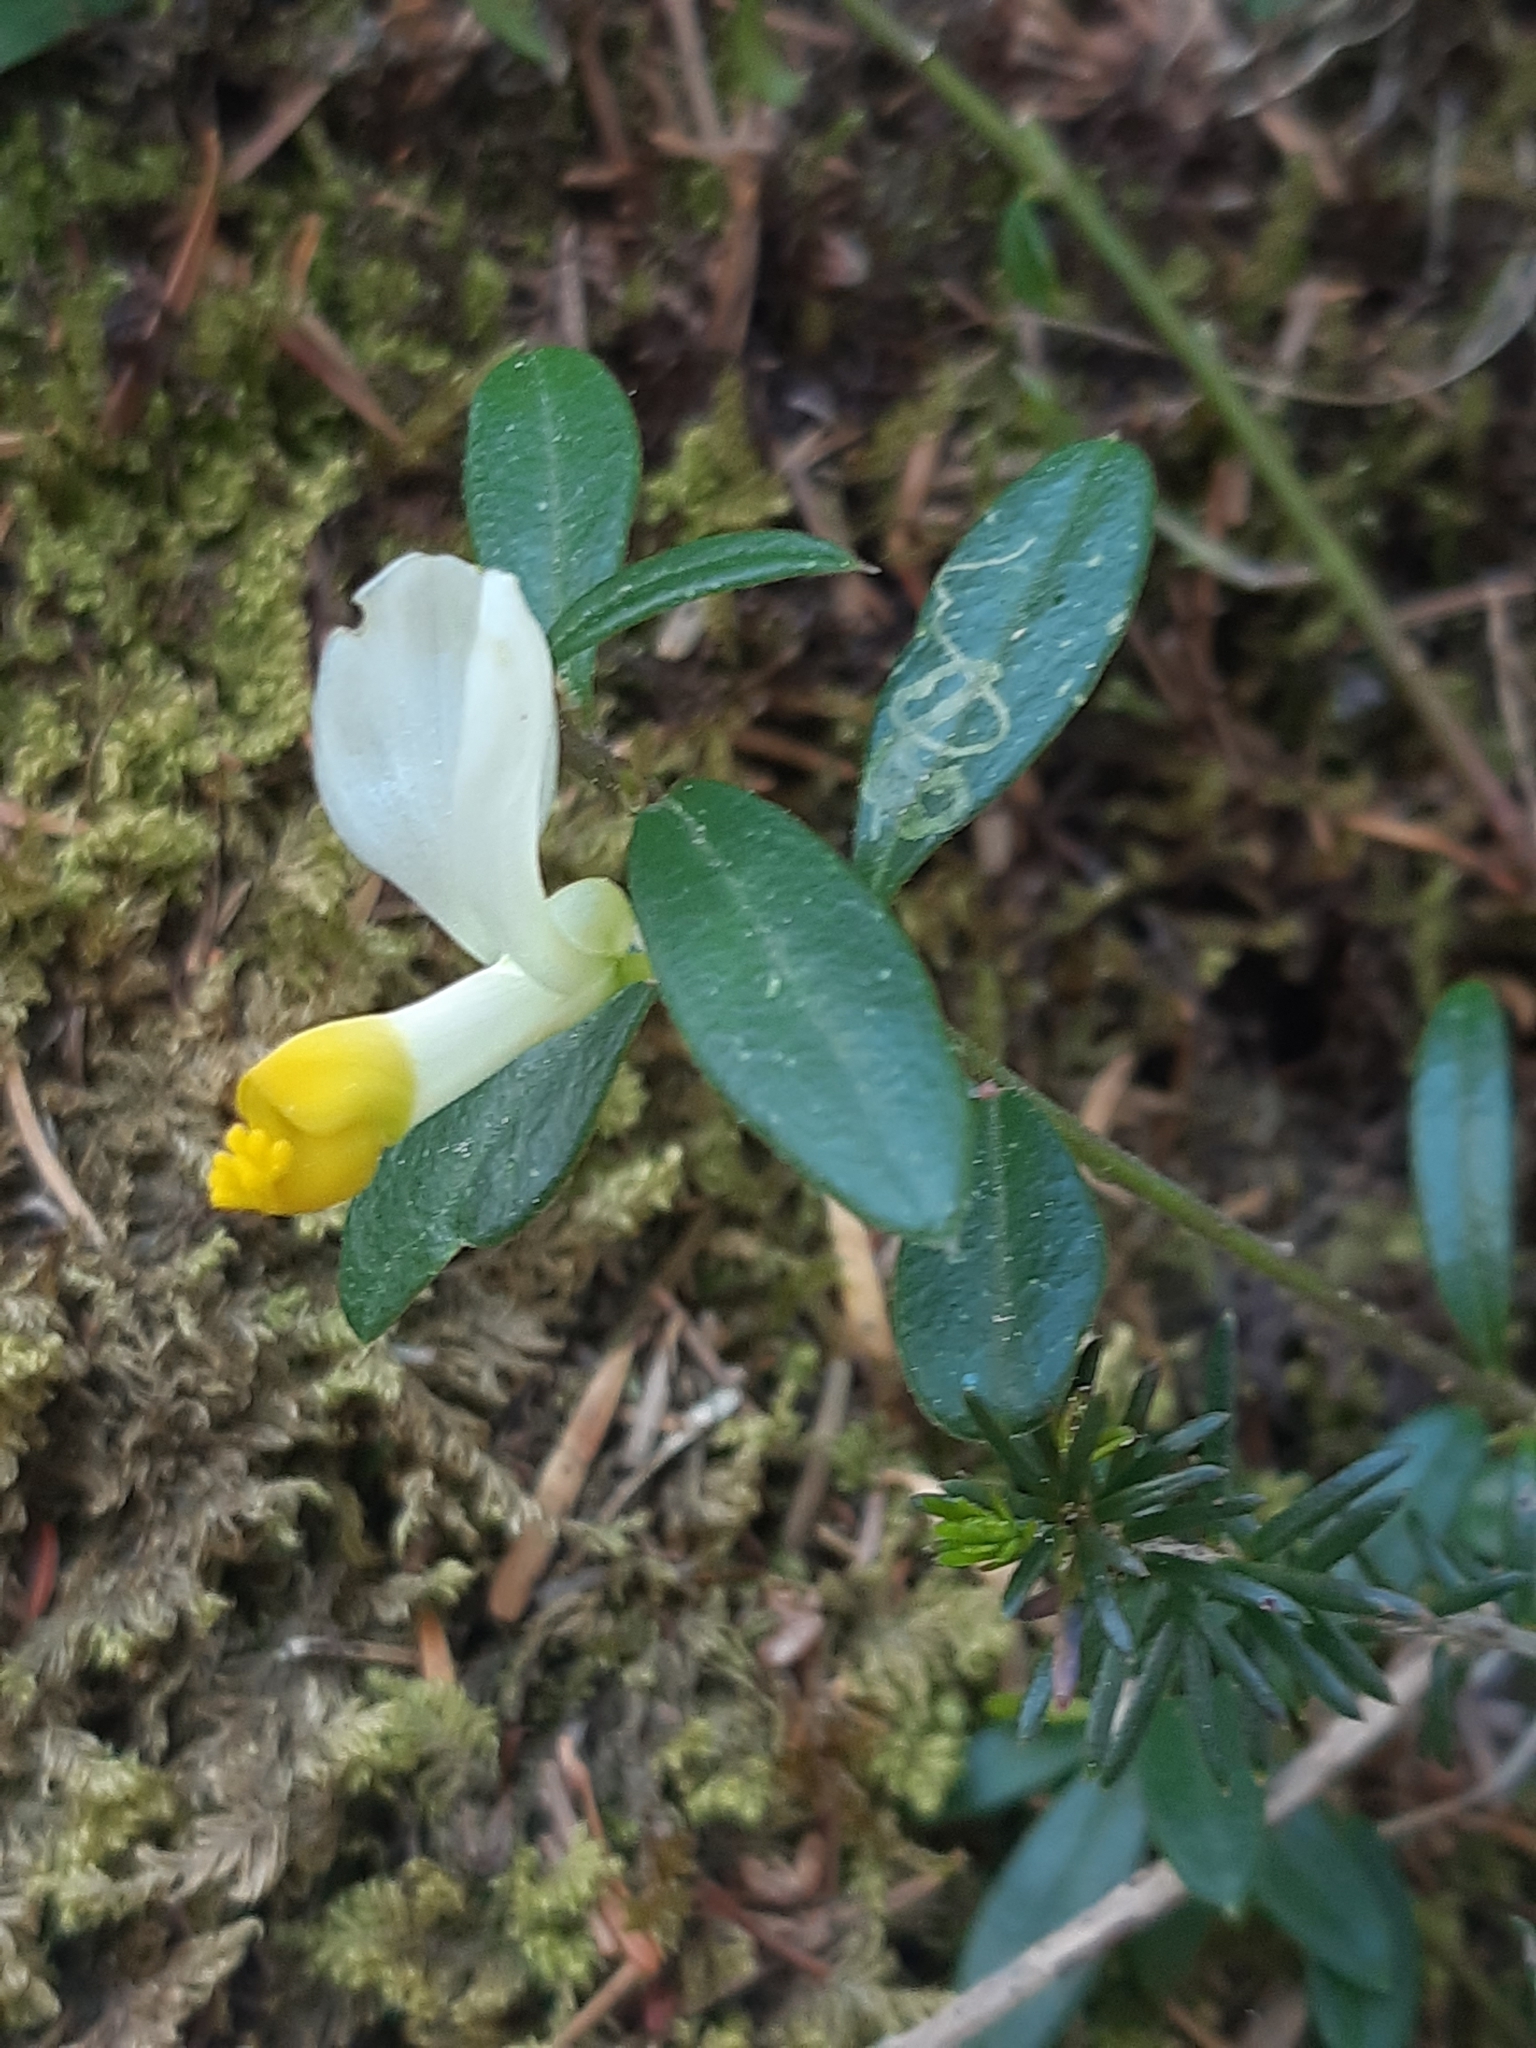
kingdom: Plantae
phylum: Tracheophyta
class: Magnoliopsida
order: Fabales
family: Polygalaceae
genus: Polygaloides
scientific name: Polygaloides chamaebuxus
